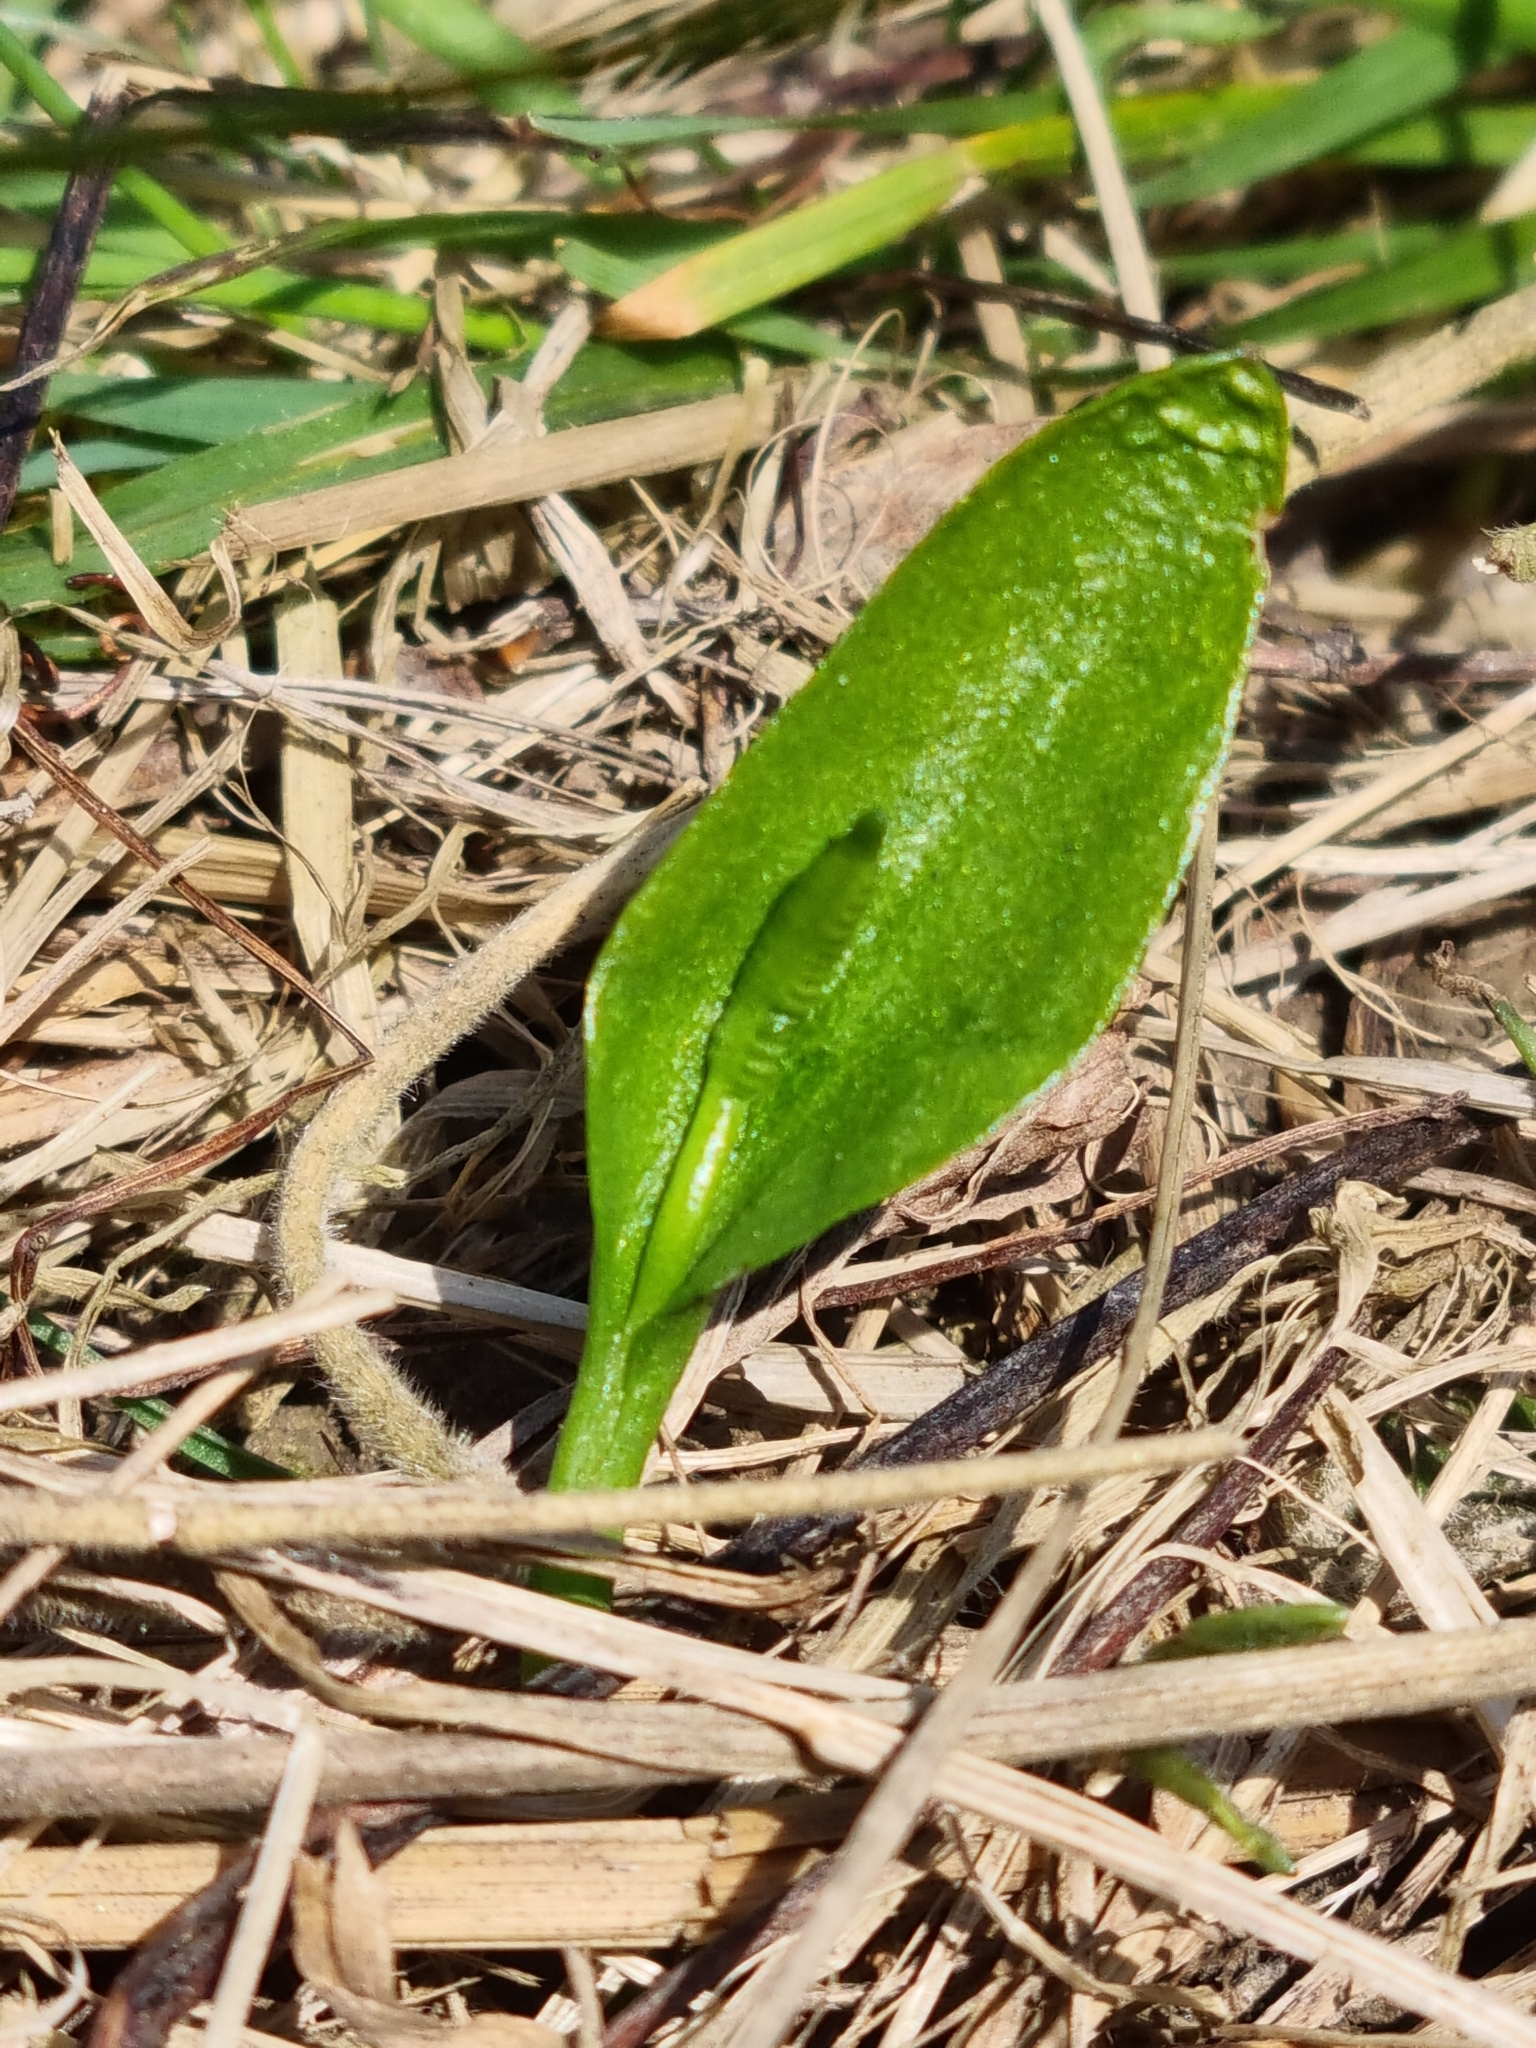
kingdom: Plantae
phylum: Tracheophyta
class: Polypodiopsida
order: Ophioglossales
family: Ophioglossaceae
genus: Ophioglossum
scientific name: Ophioglossum vulgatum
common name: Adder's-tongue
